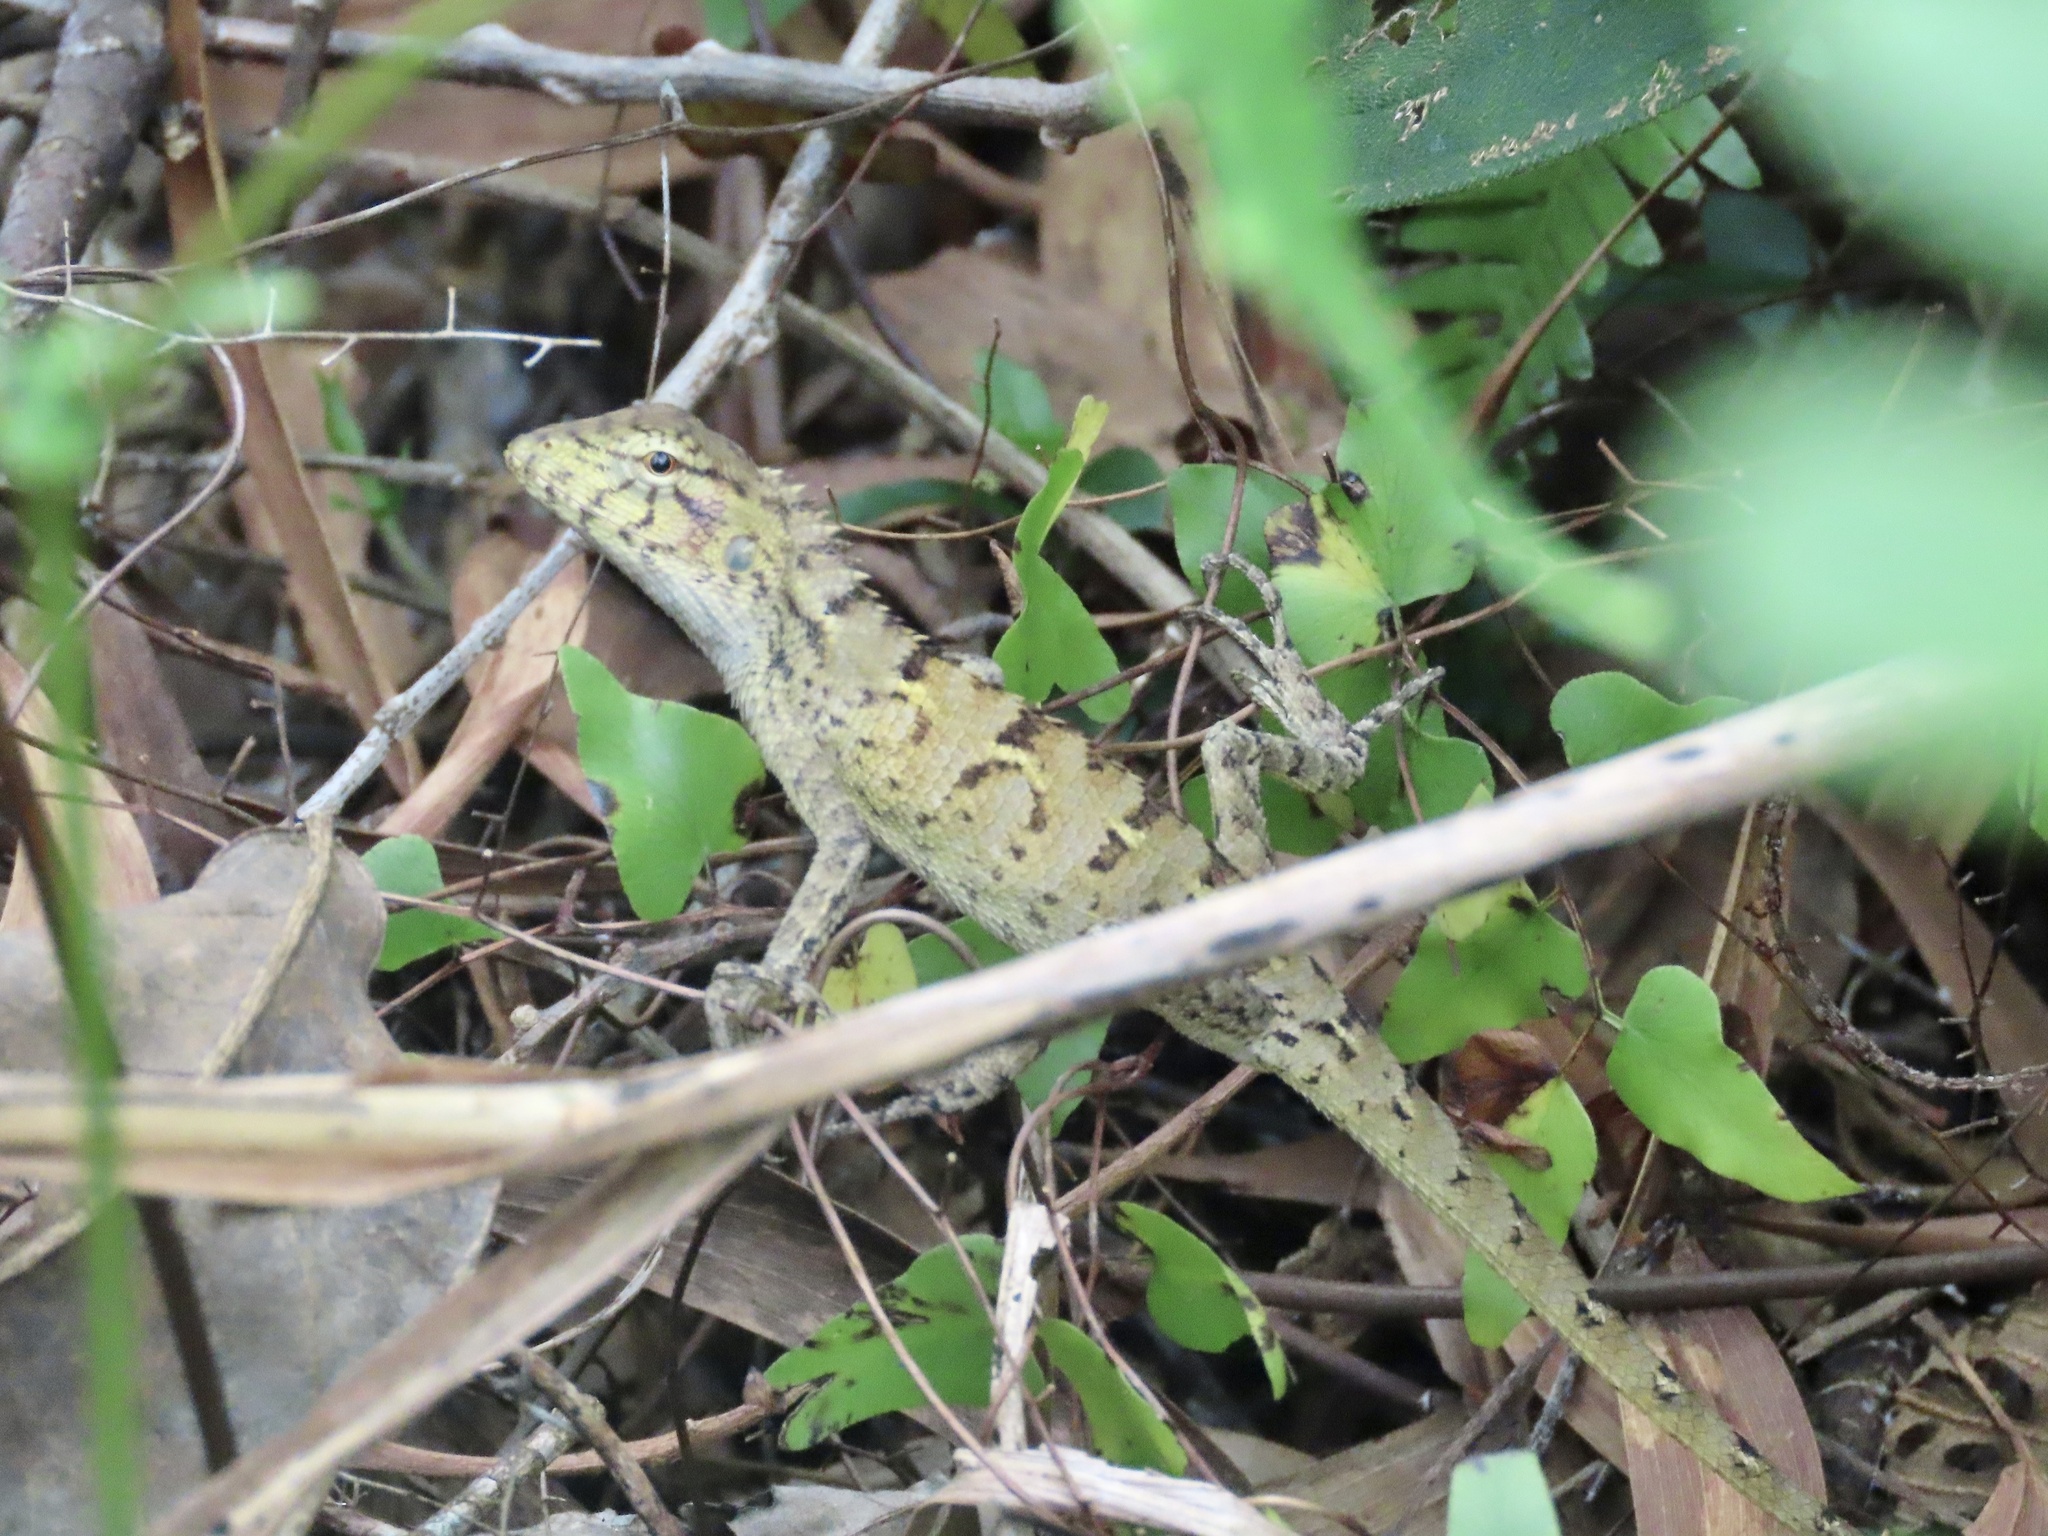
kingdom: Animalia
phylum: Chordata
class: Squamata
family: Agamidae
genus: Calotes
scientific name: Calotes versicolor
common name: Oriental garden lizard
